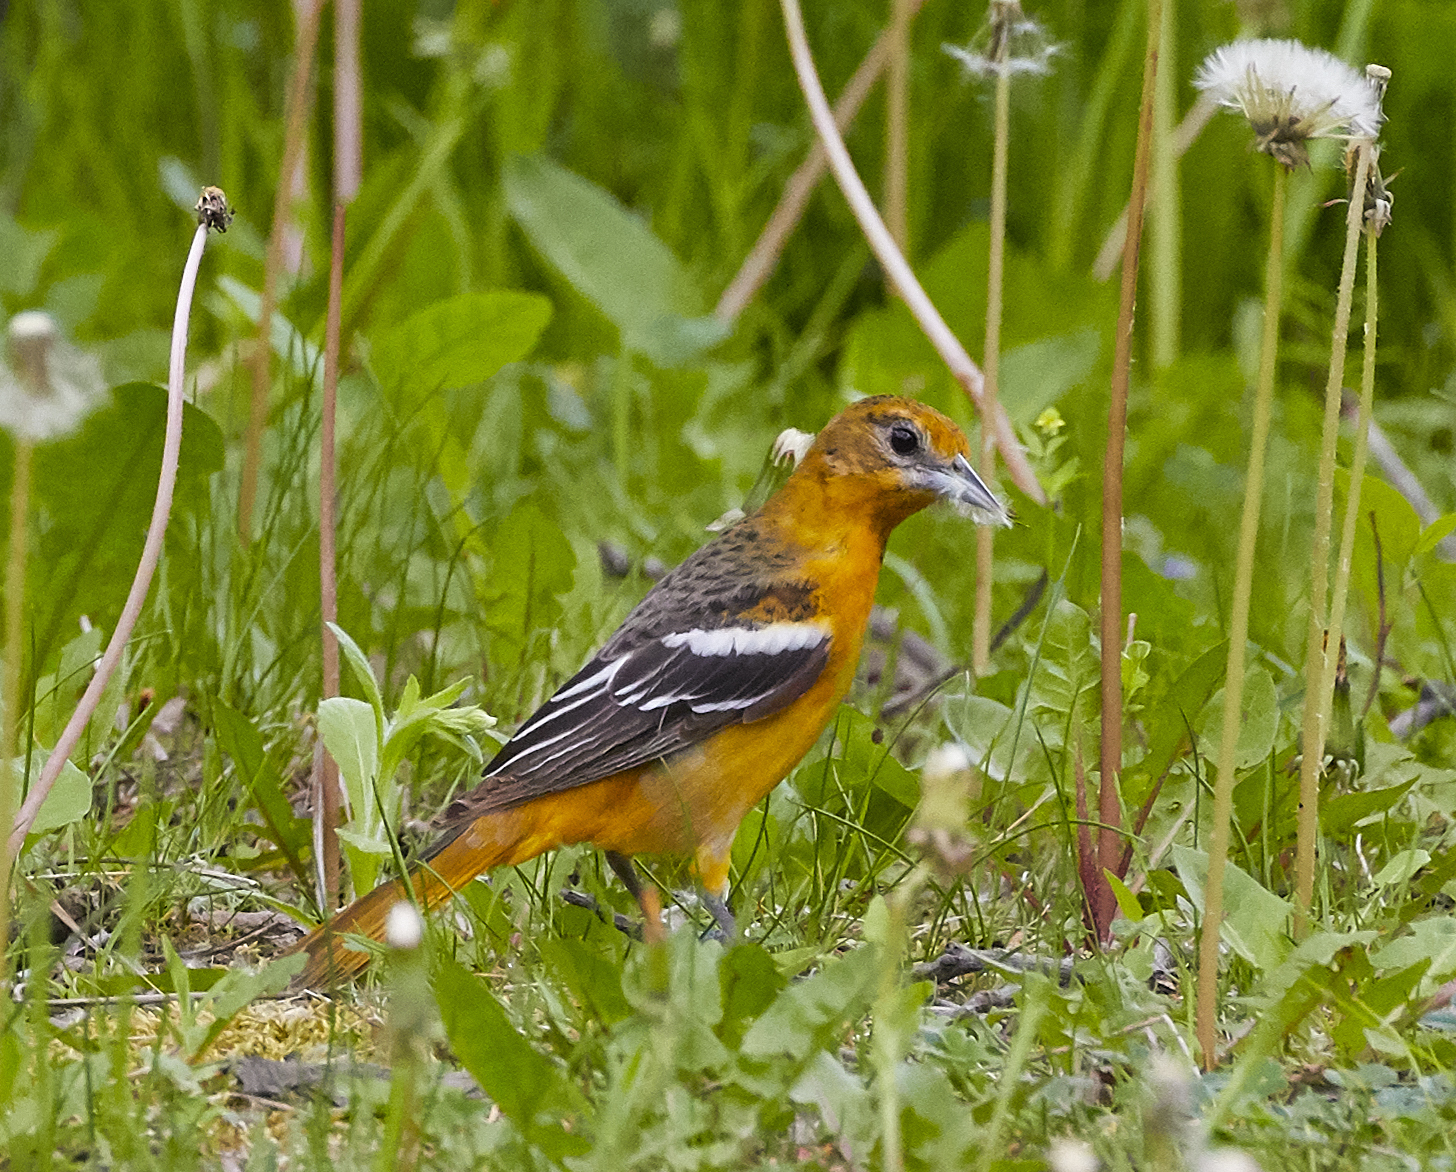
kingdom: Animalia
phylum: Chordata
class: Aves
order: Passeriformes
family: Icteridae
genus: Icterus
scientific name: Icterus galbula
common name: Baltimore oriole
